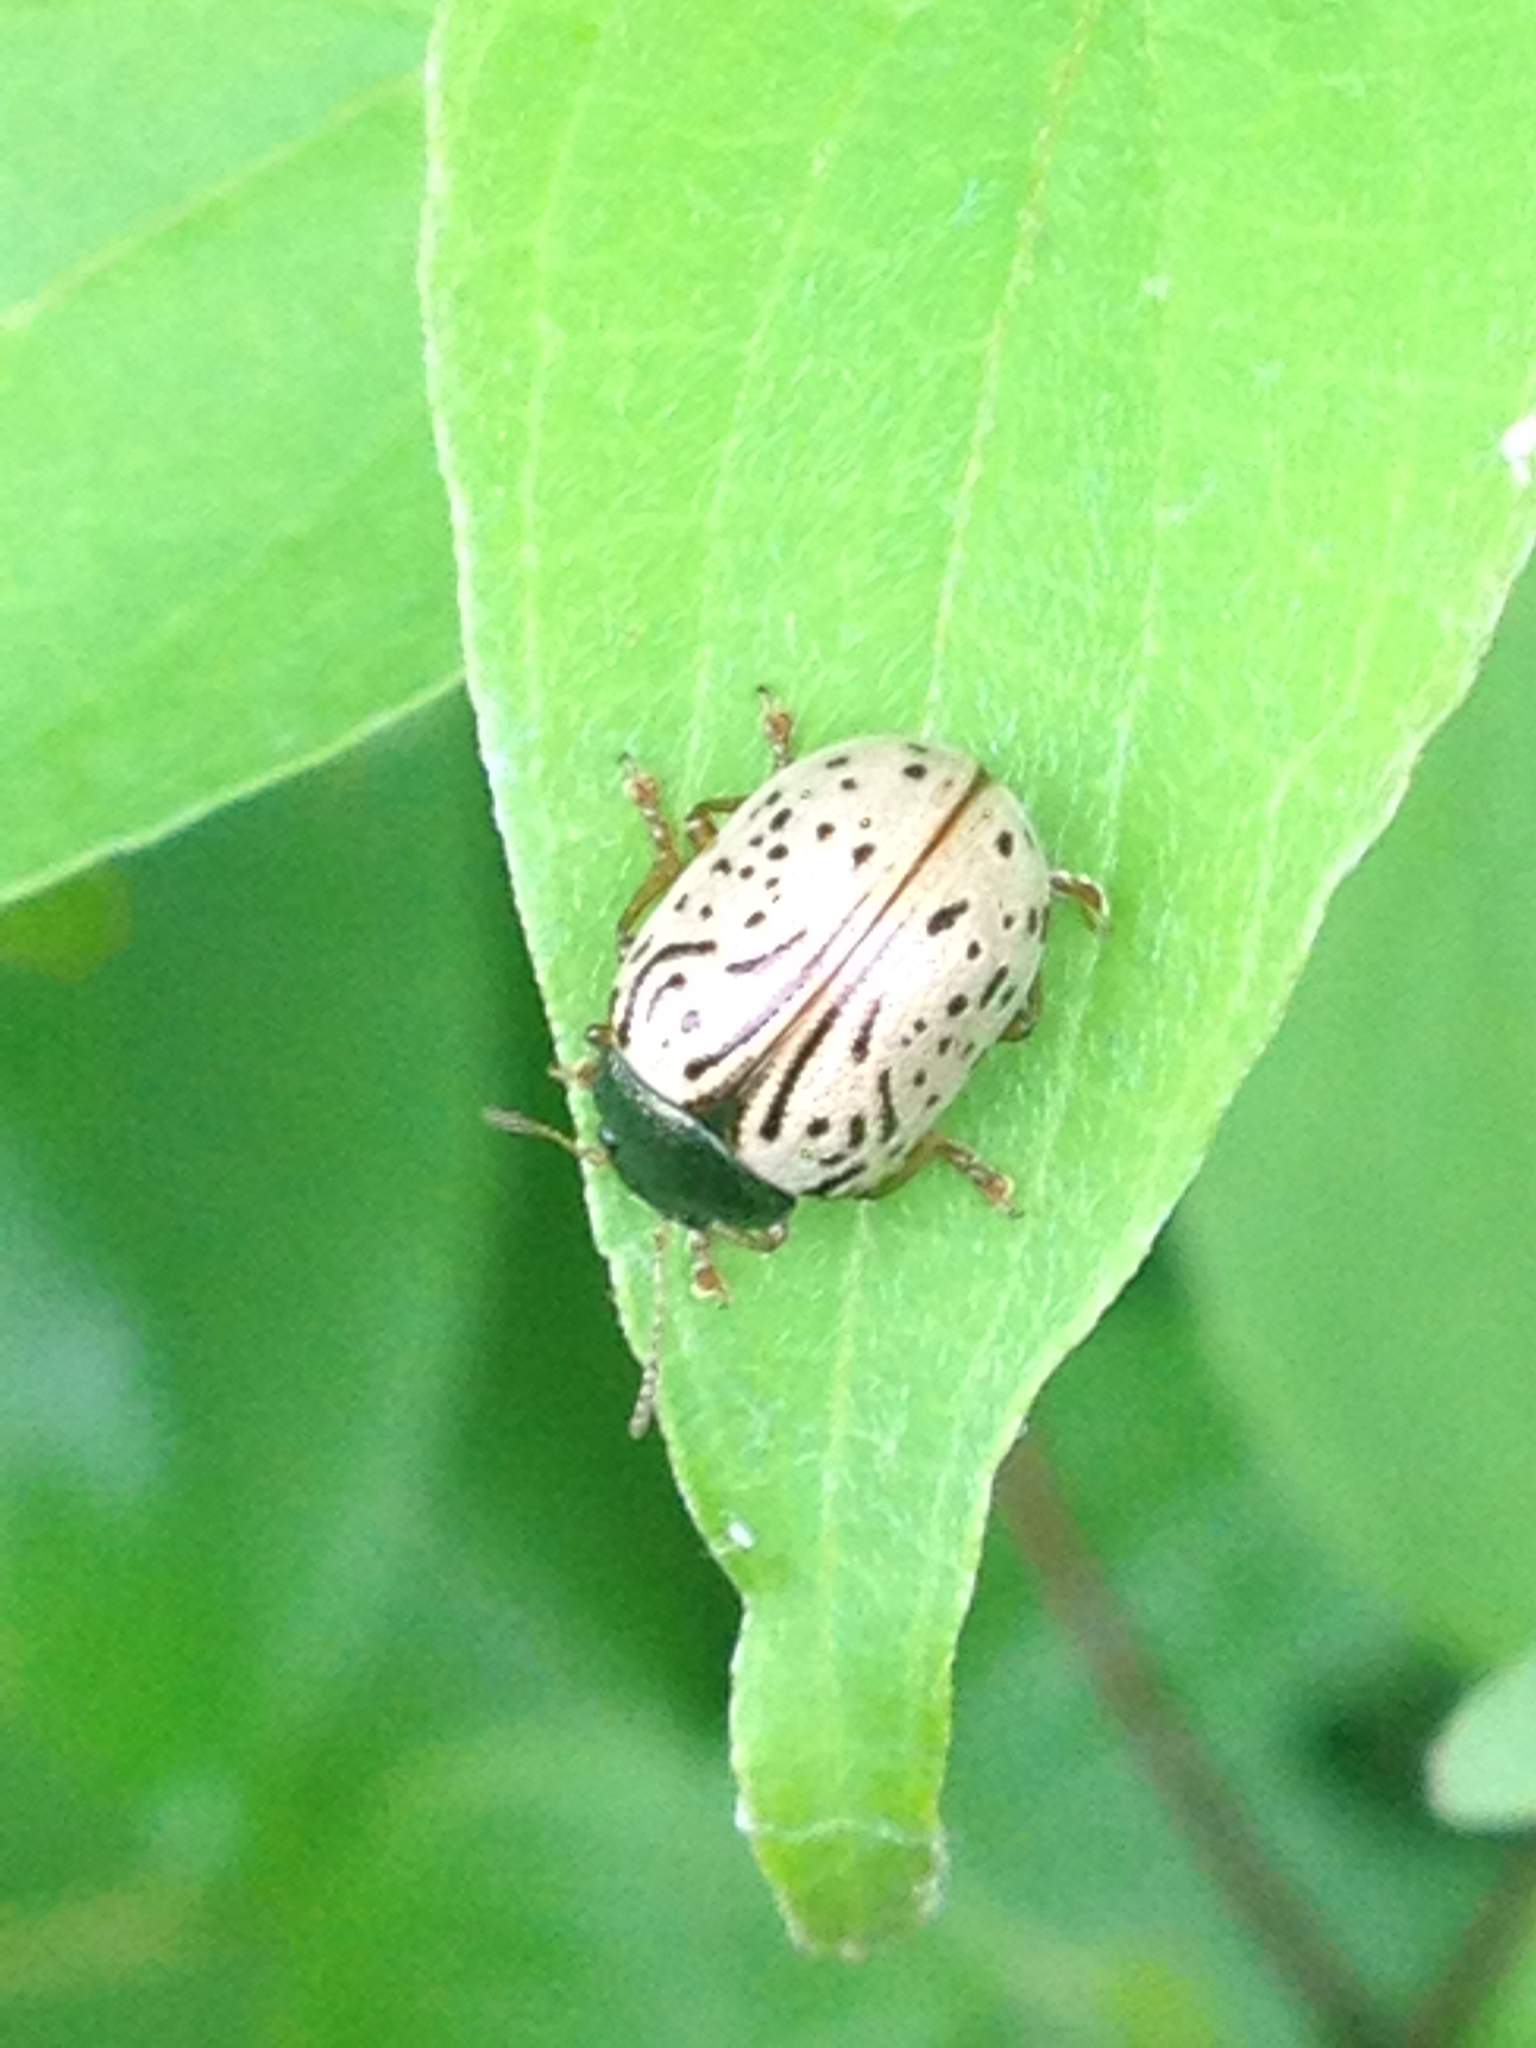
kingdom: Animalia
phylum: Arthropoda
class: Insecta
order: Coleoptera
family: Chrysomelidae
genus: Calligrapha
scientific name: Calligrapha philadelphica
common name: Dogwood leaf beetle
